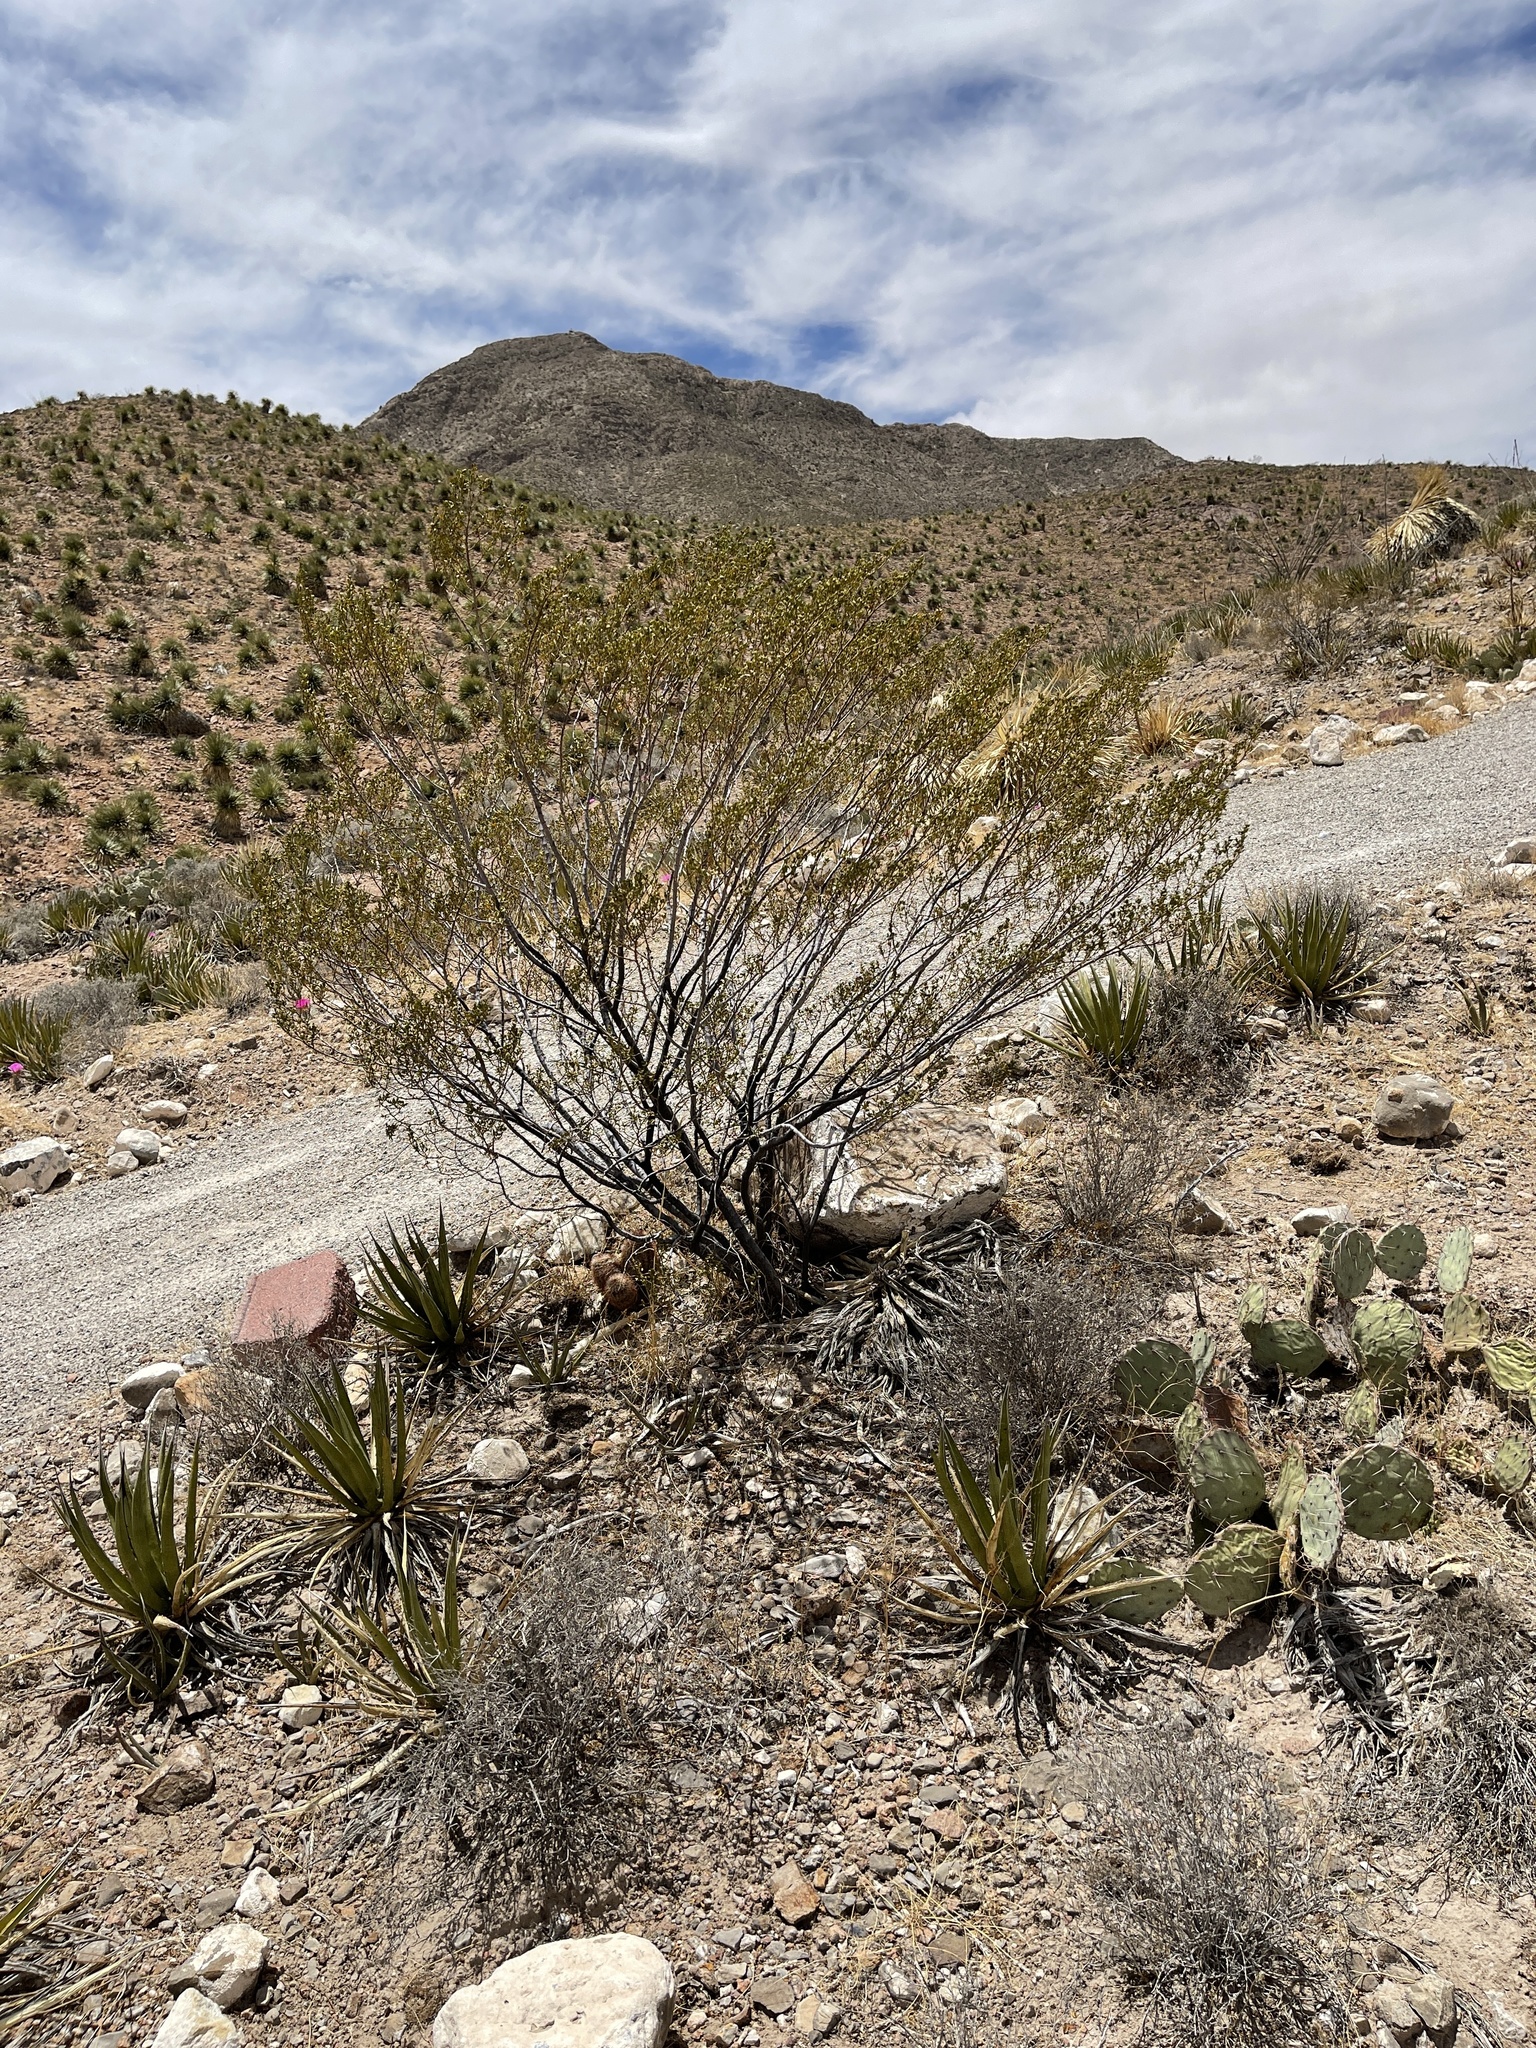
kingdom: Plantae
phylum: Tracheophyta
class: Magnoliopsida
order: Zygophyllales
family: Zygophyllaceae
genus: Larrea
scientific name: Larrea tridentata
